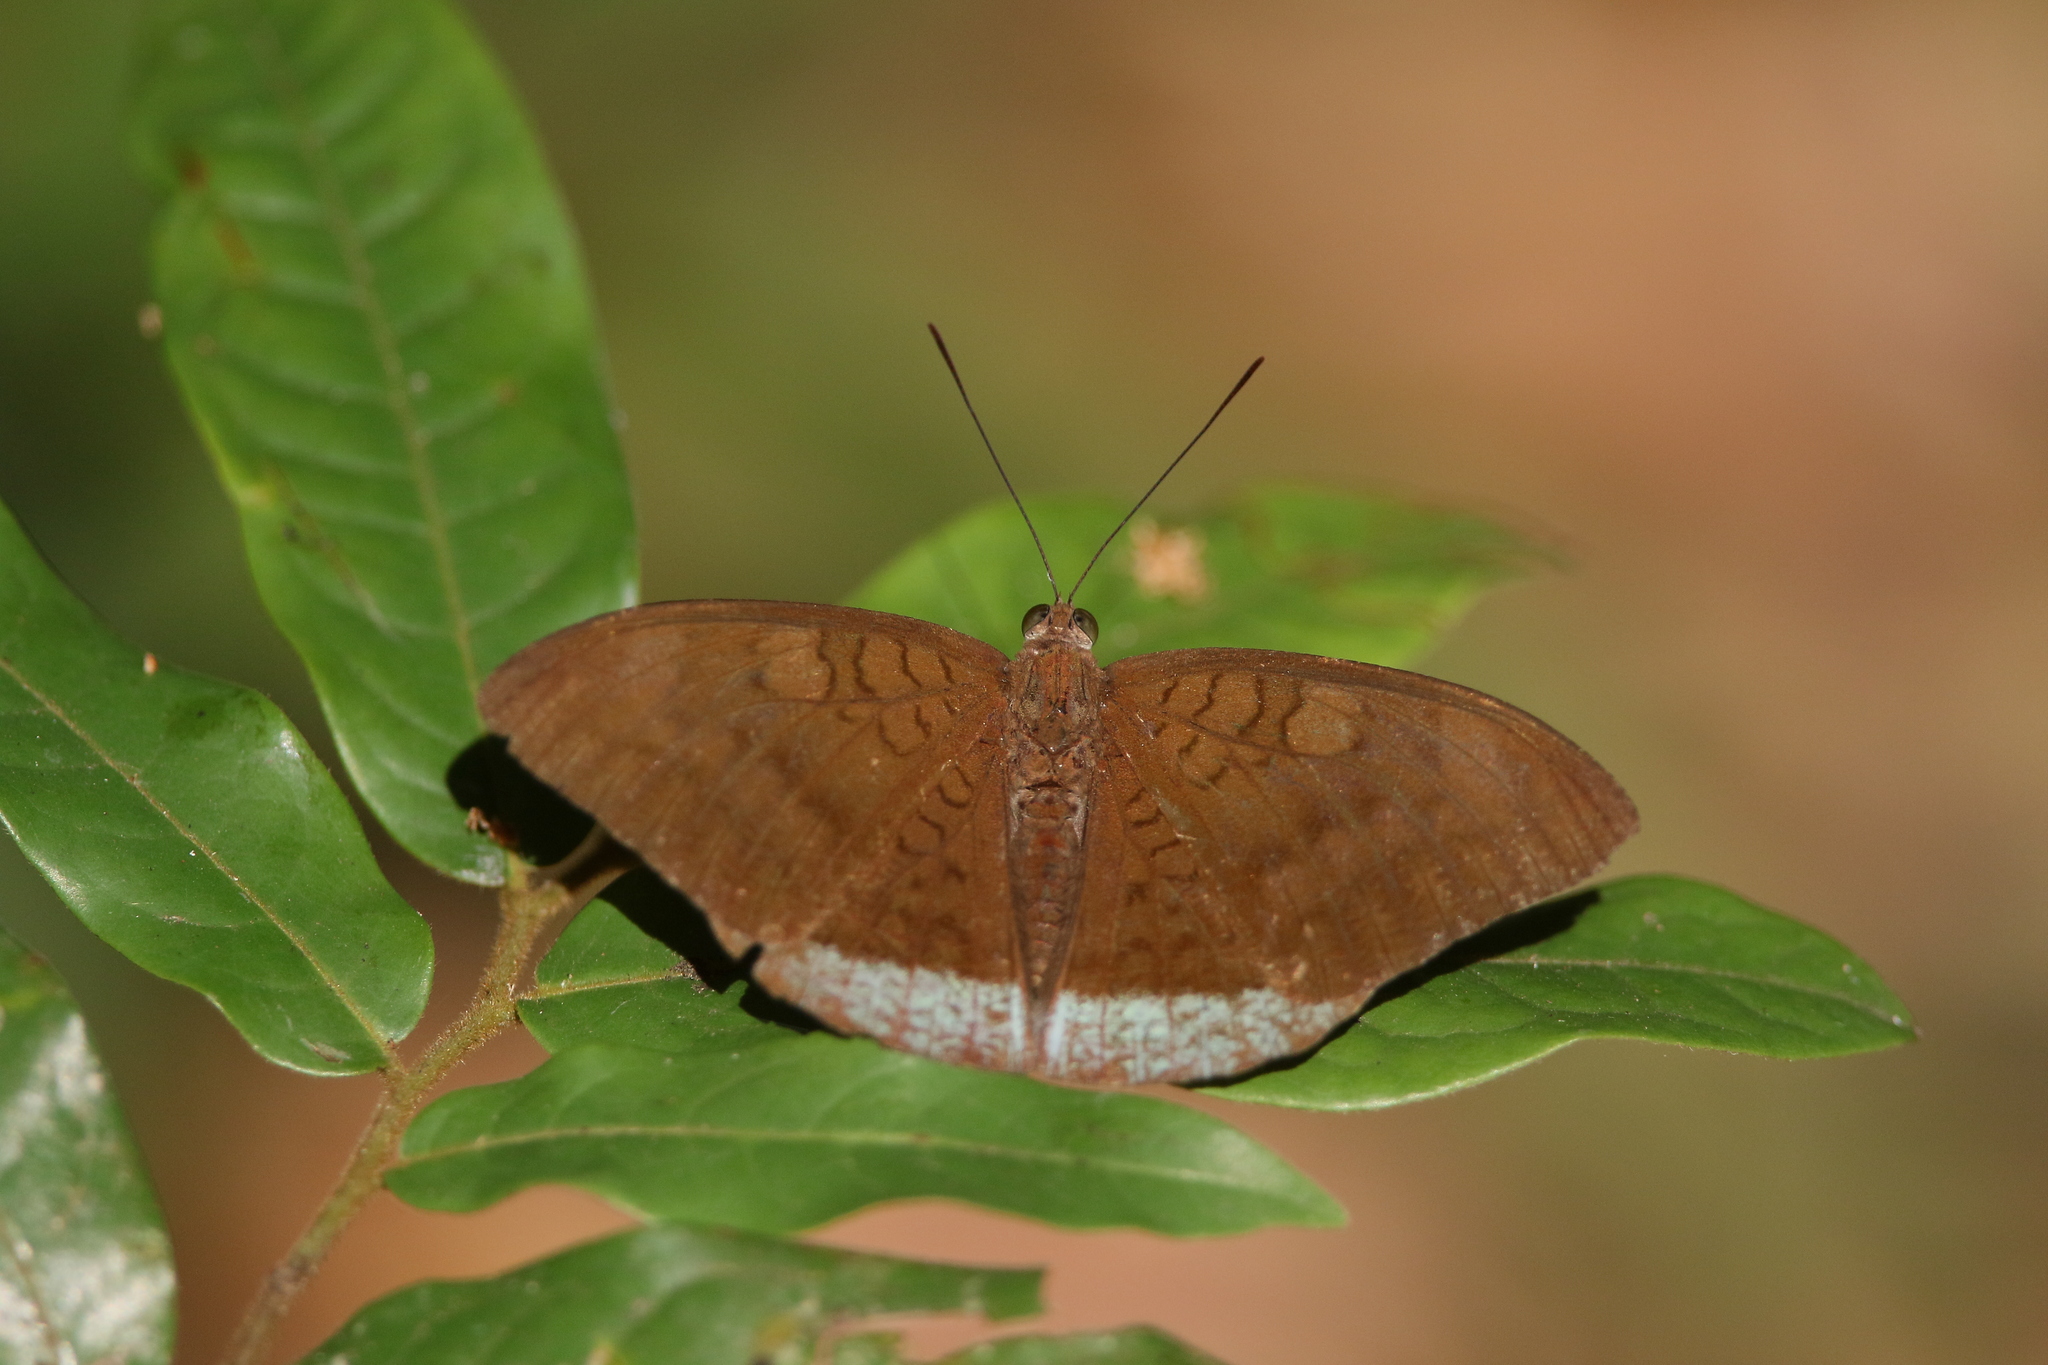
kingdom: Animalia
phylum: Arthropoda
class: Insecta
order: Lepidoptera
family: Nymphalidae
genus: Tanaecia
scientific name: Tanaecia julii
